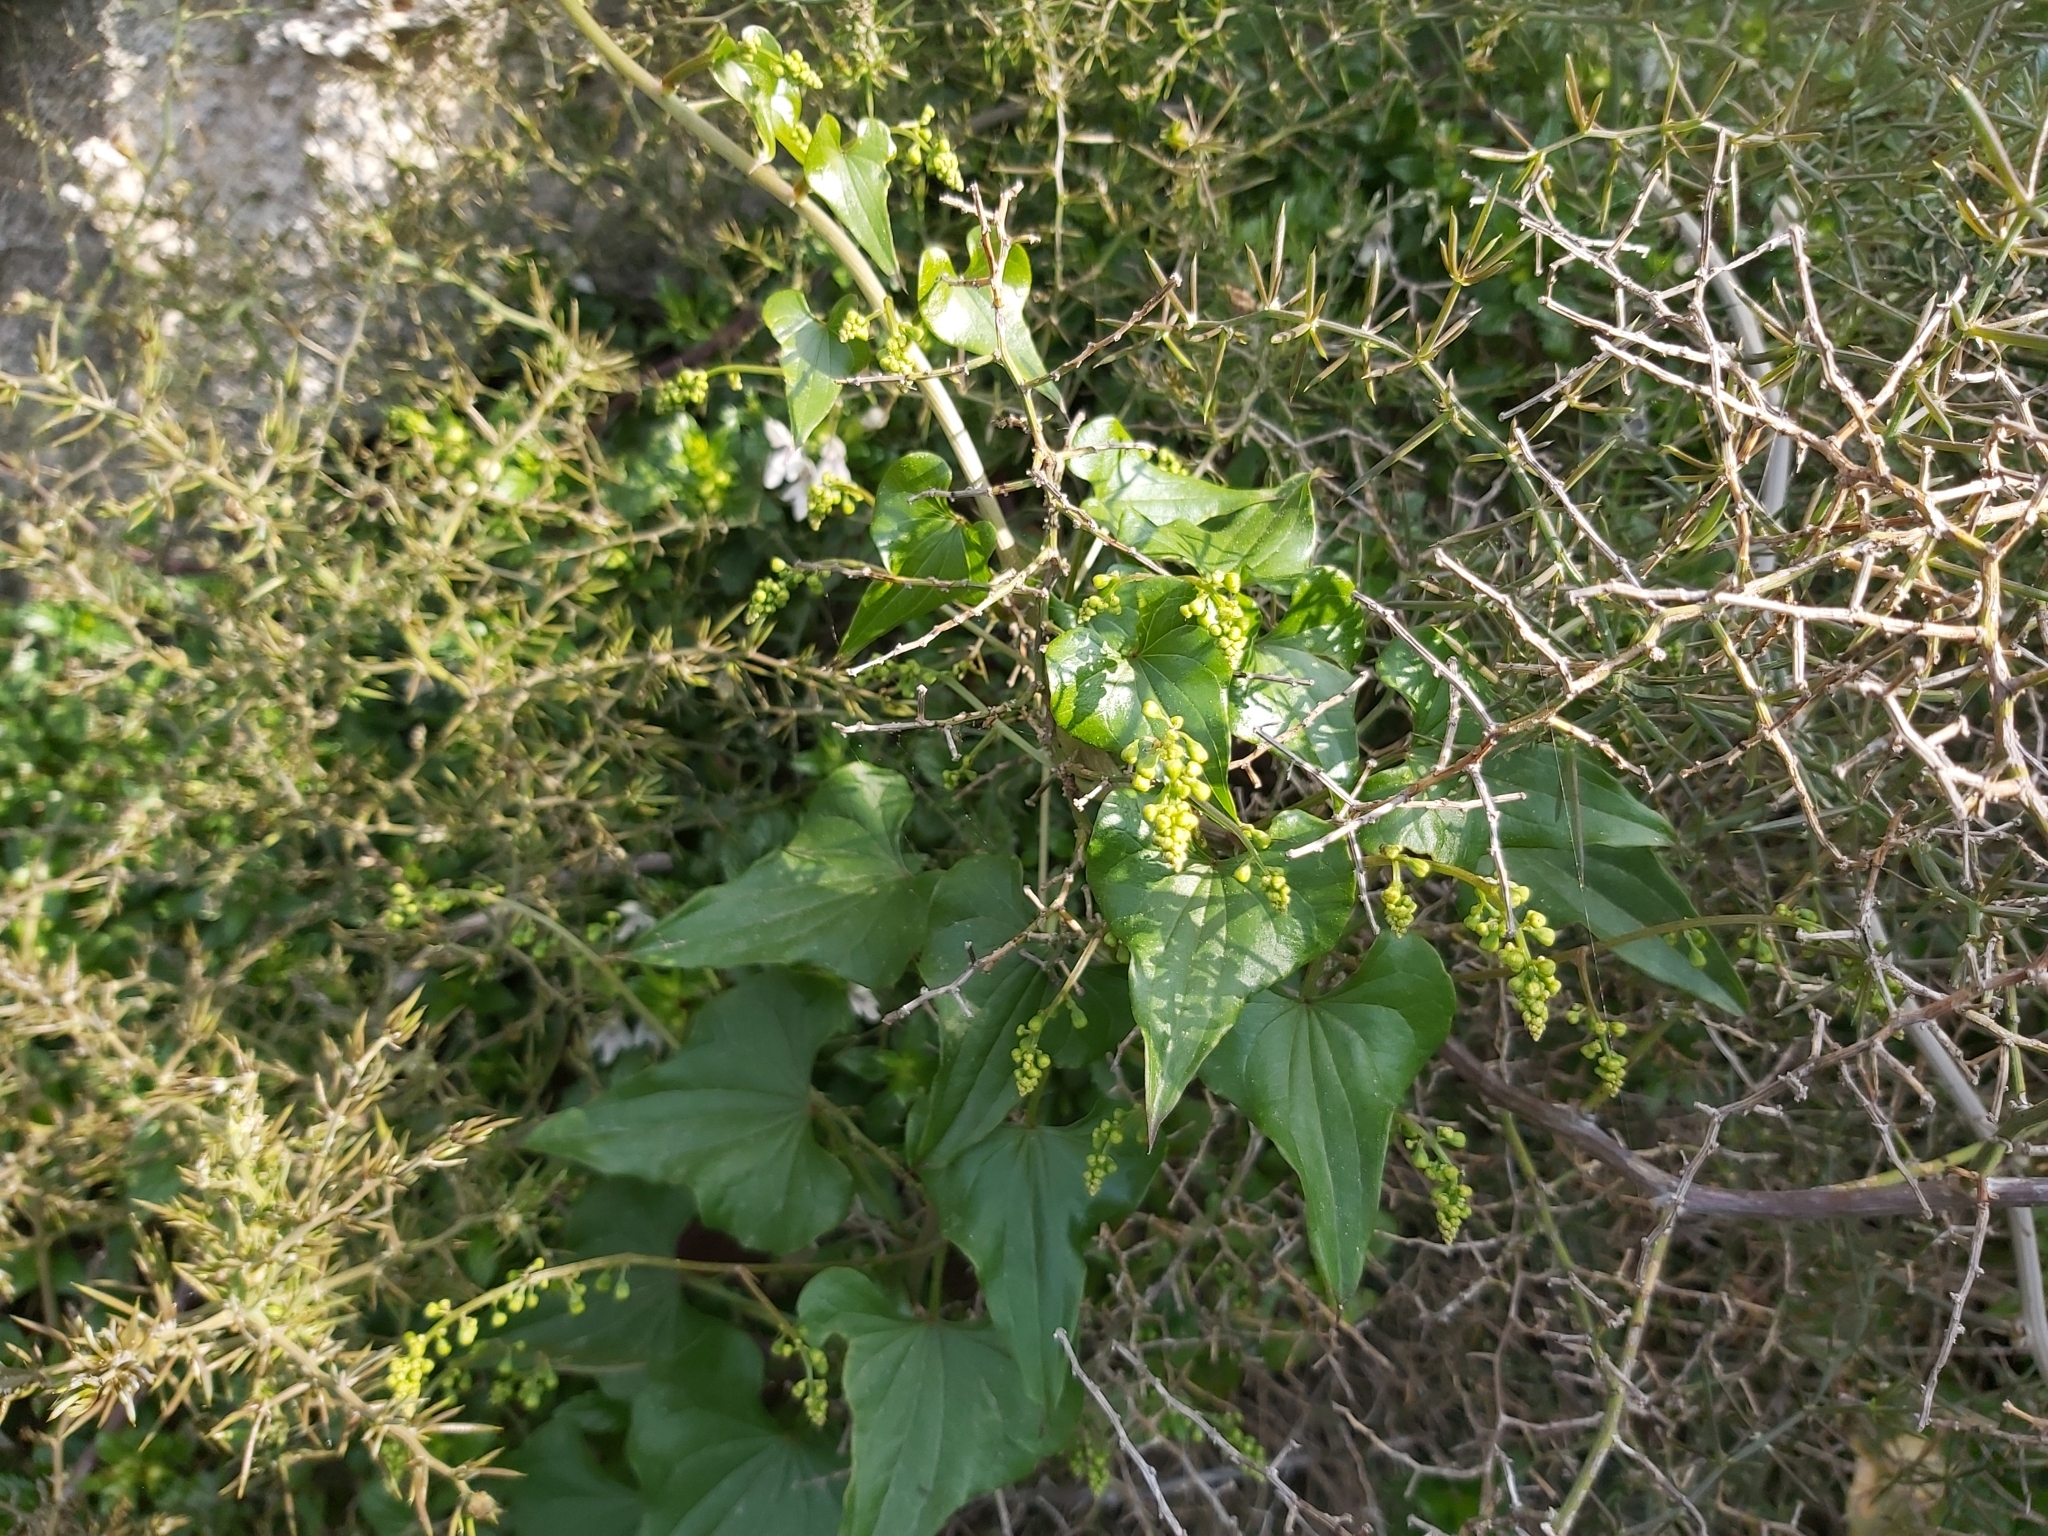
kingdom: Plantae
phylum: Tracheophyta
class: Liliopsida
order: Dioscoreales
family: Dioscoreaceae
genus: Dioscorea
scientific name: Dioscorea communis
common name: Black-bindweed
